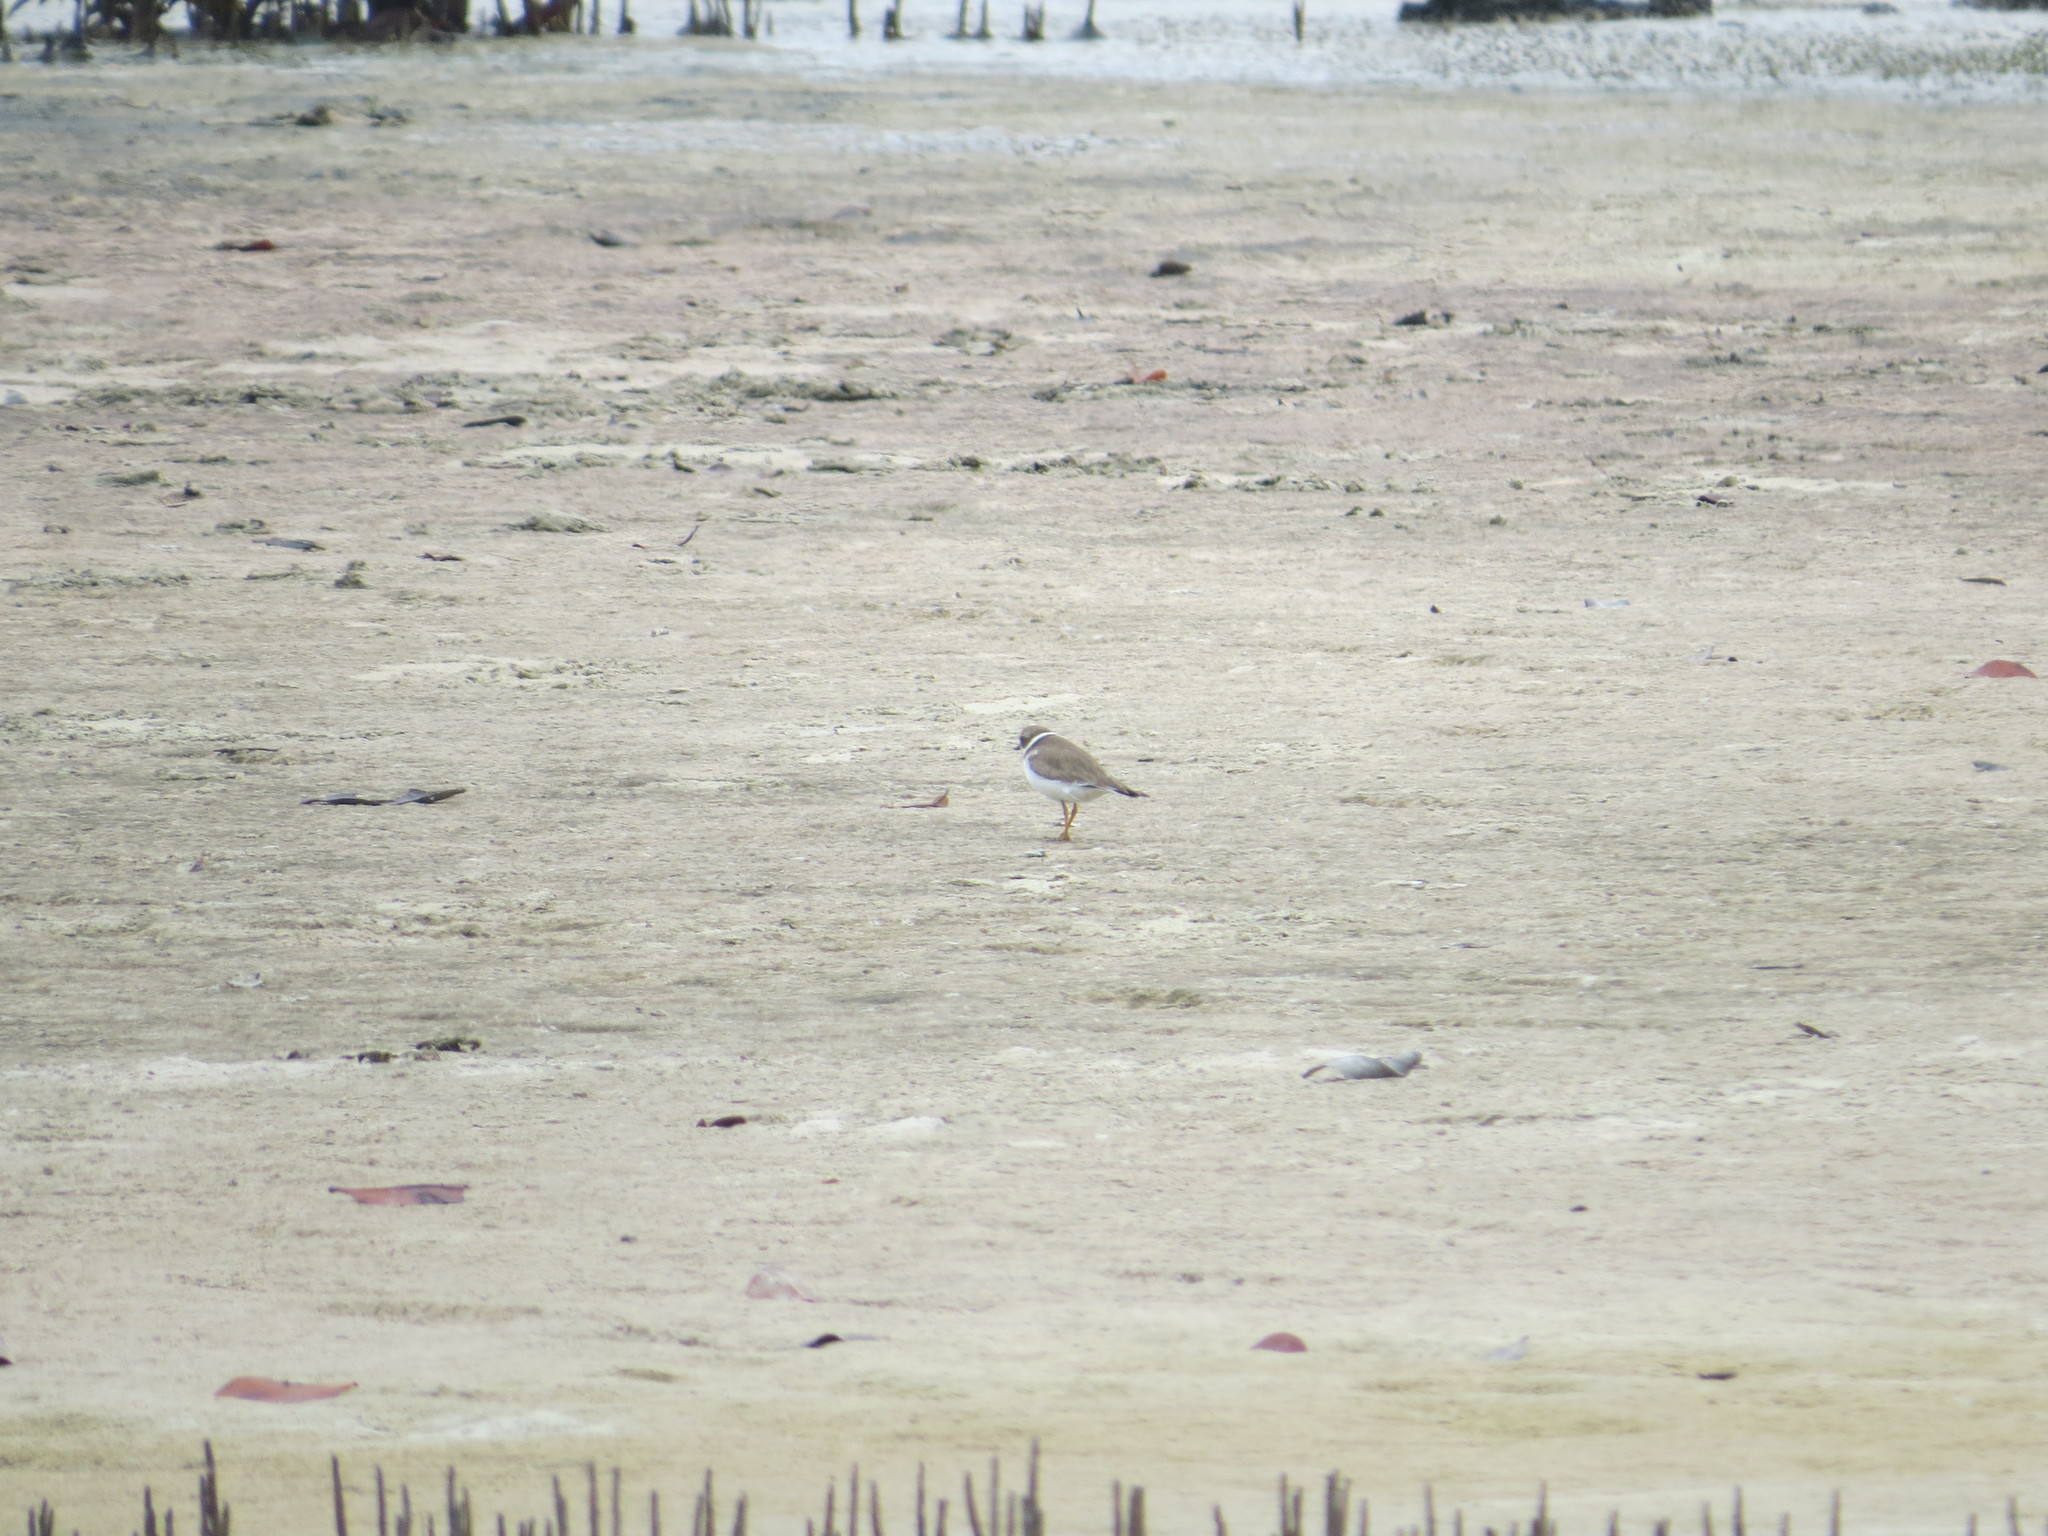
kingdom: Animalia
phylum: Chordata
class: Aves
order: Charadriiformes
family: Charadriidae
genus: Charadrius
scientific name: Charadrius semipalmatus
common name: Semipalmated plover
